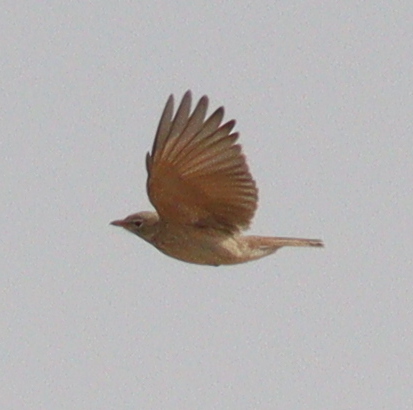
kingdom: Animalia
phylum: Chordata
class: Aves
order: Passeriformes
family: Alaudidae
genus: Ammomanes
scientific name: Ammomanes deserti
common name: Desert lark
